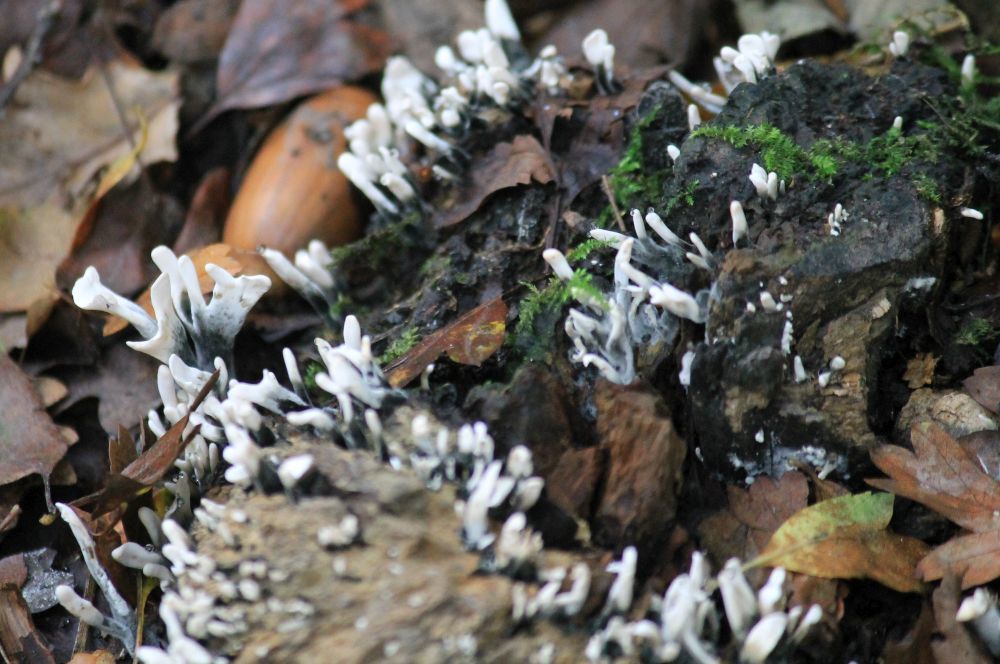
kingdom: Fungi
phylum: Ascomycota
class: Sordariomycetes
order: Xylariales
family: Xylariaceae
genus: Xylaria
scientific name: Xylaria hypoxylon
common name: Candle-snuff fungus
